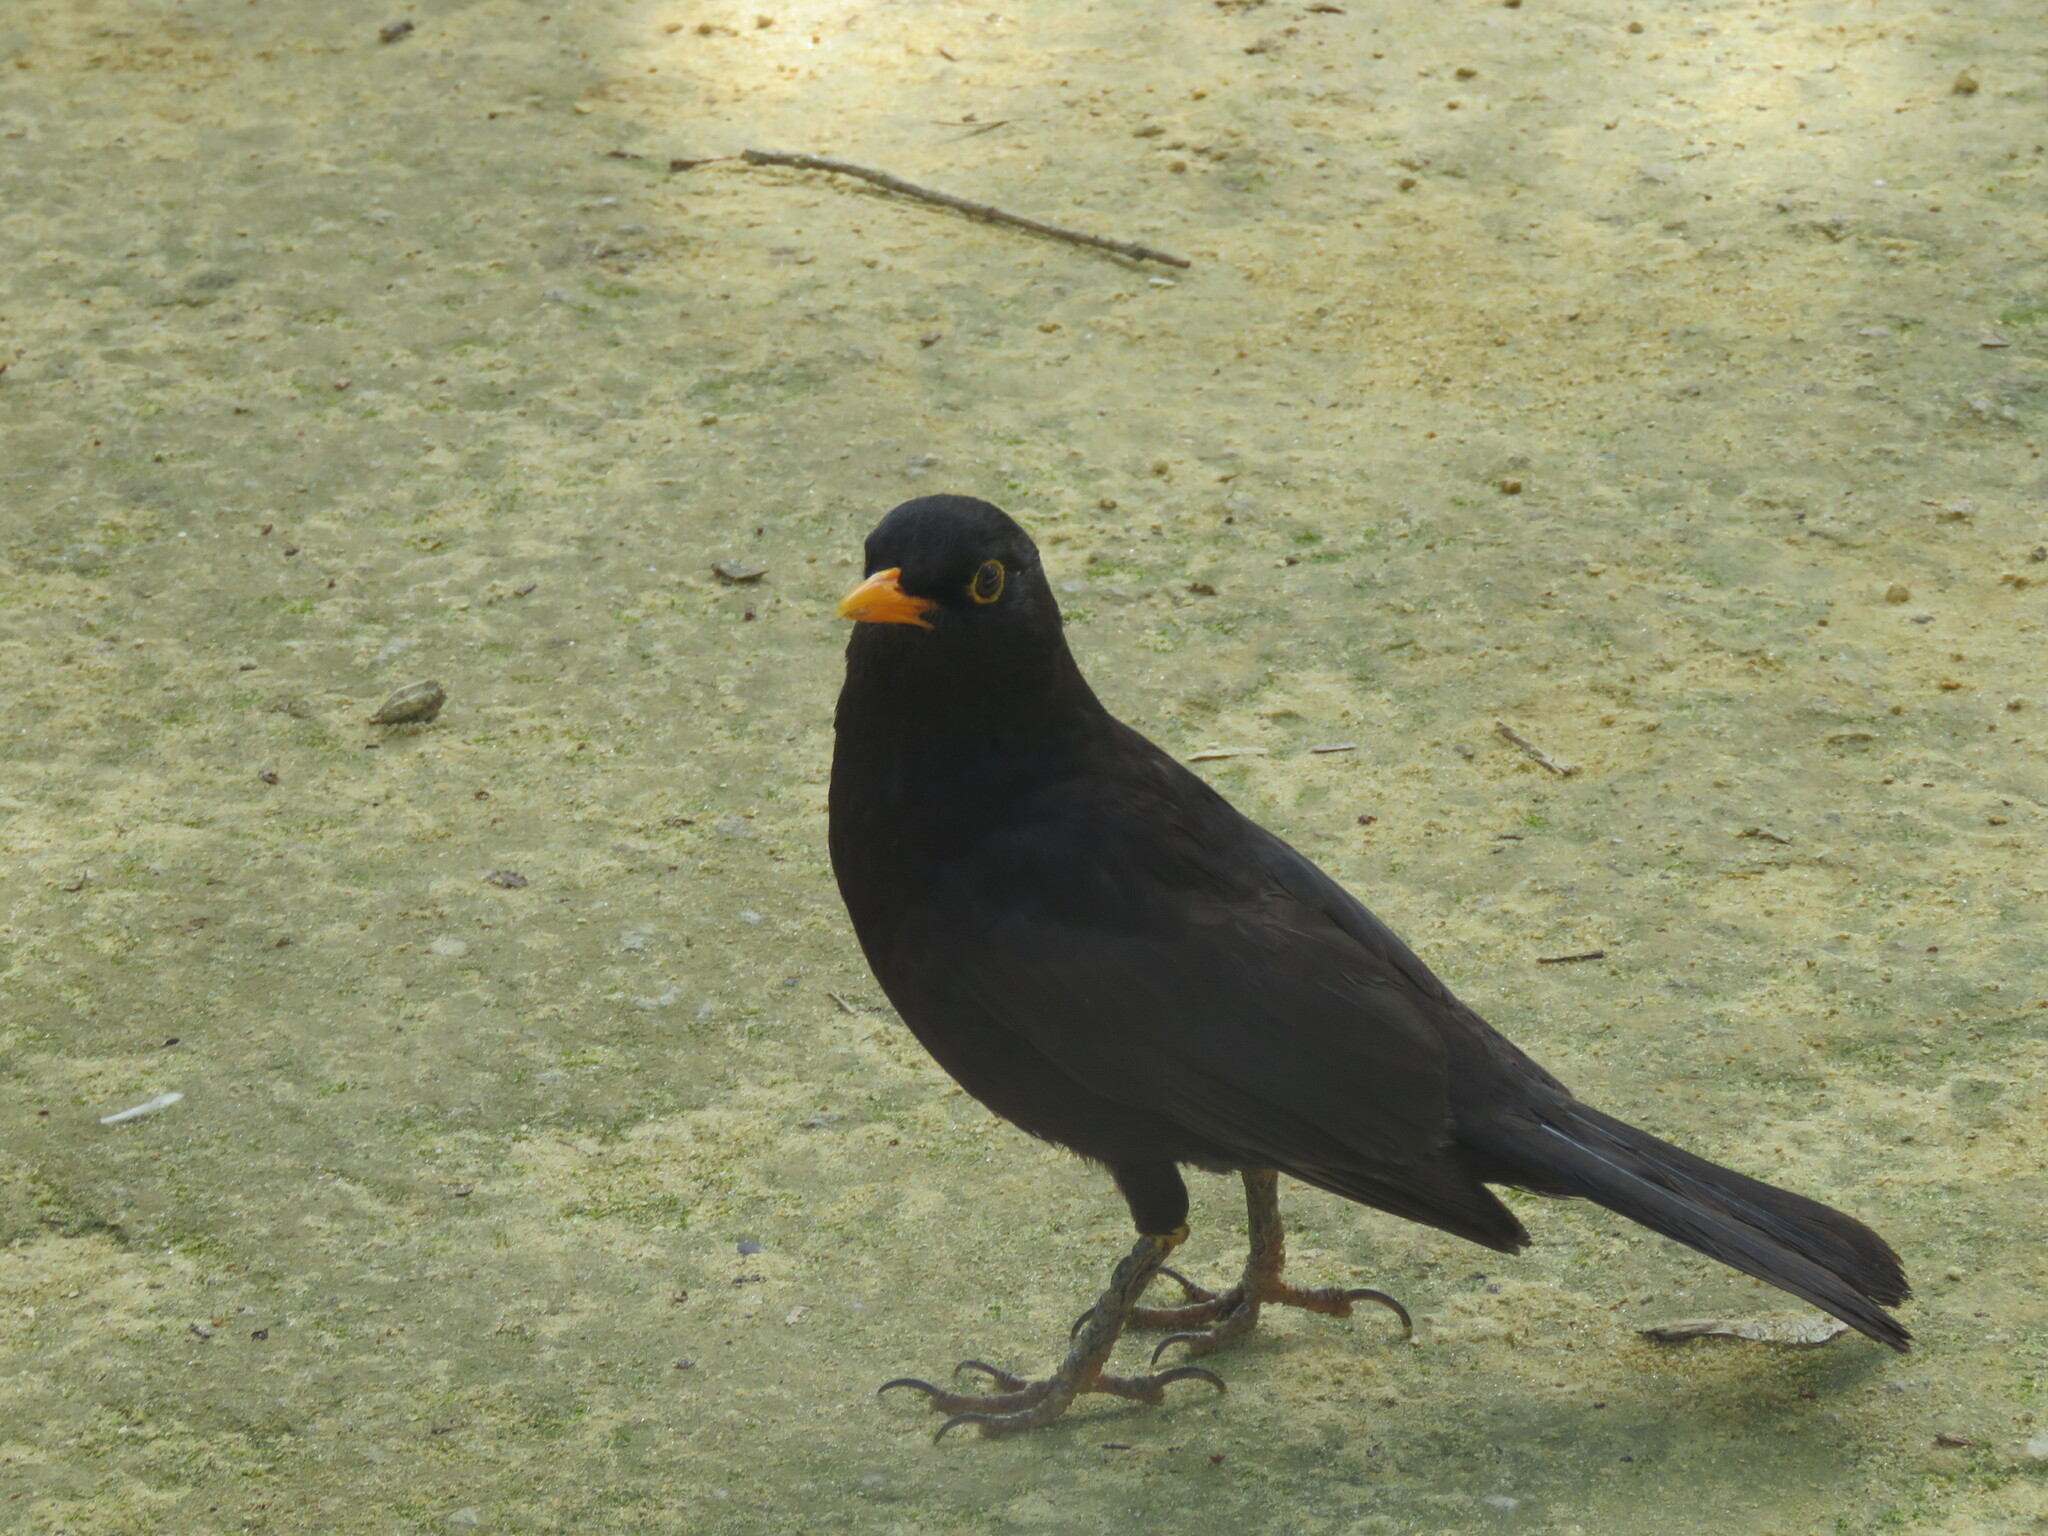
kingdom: Animalia
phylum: Chordata
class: Aves
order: Passeriformes
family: Turdidae
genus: Turdus
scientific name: Turdus merula
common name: Common blackbird
